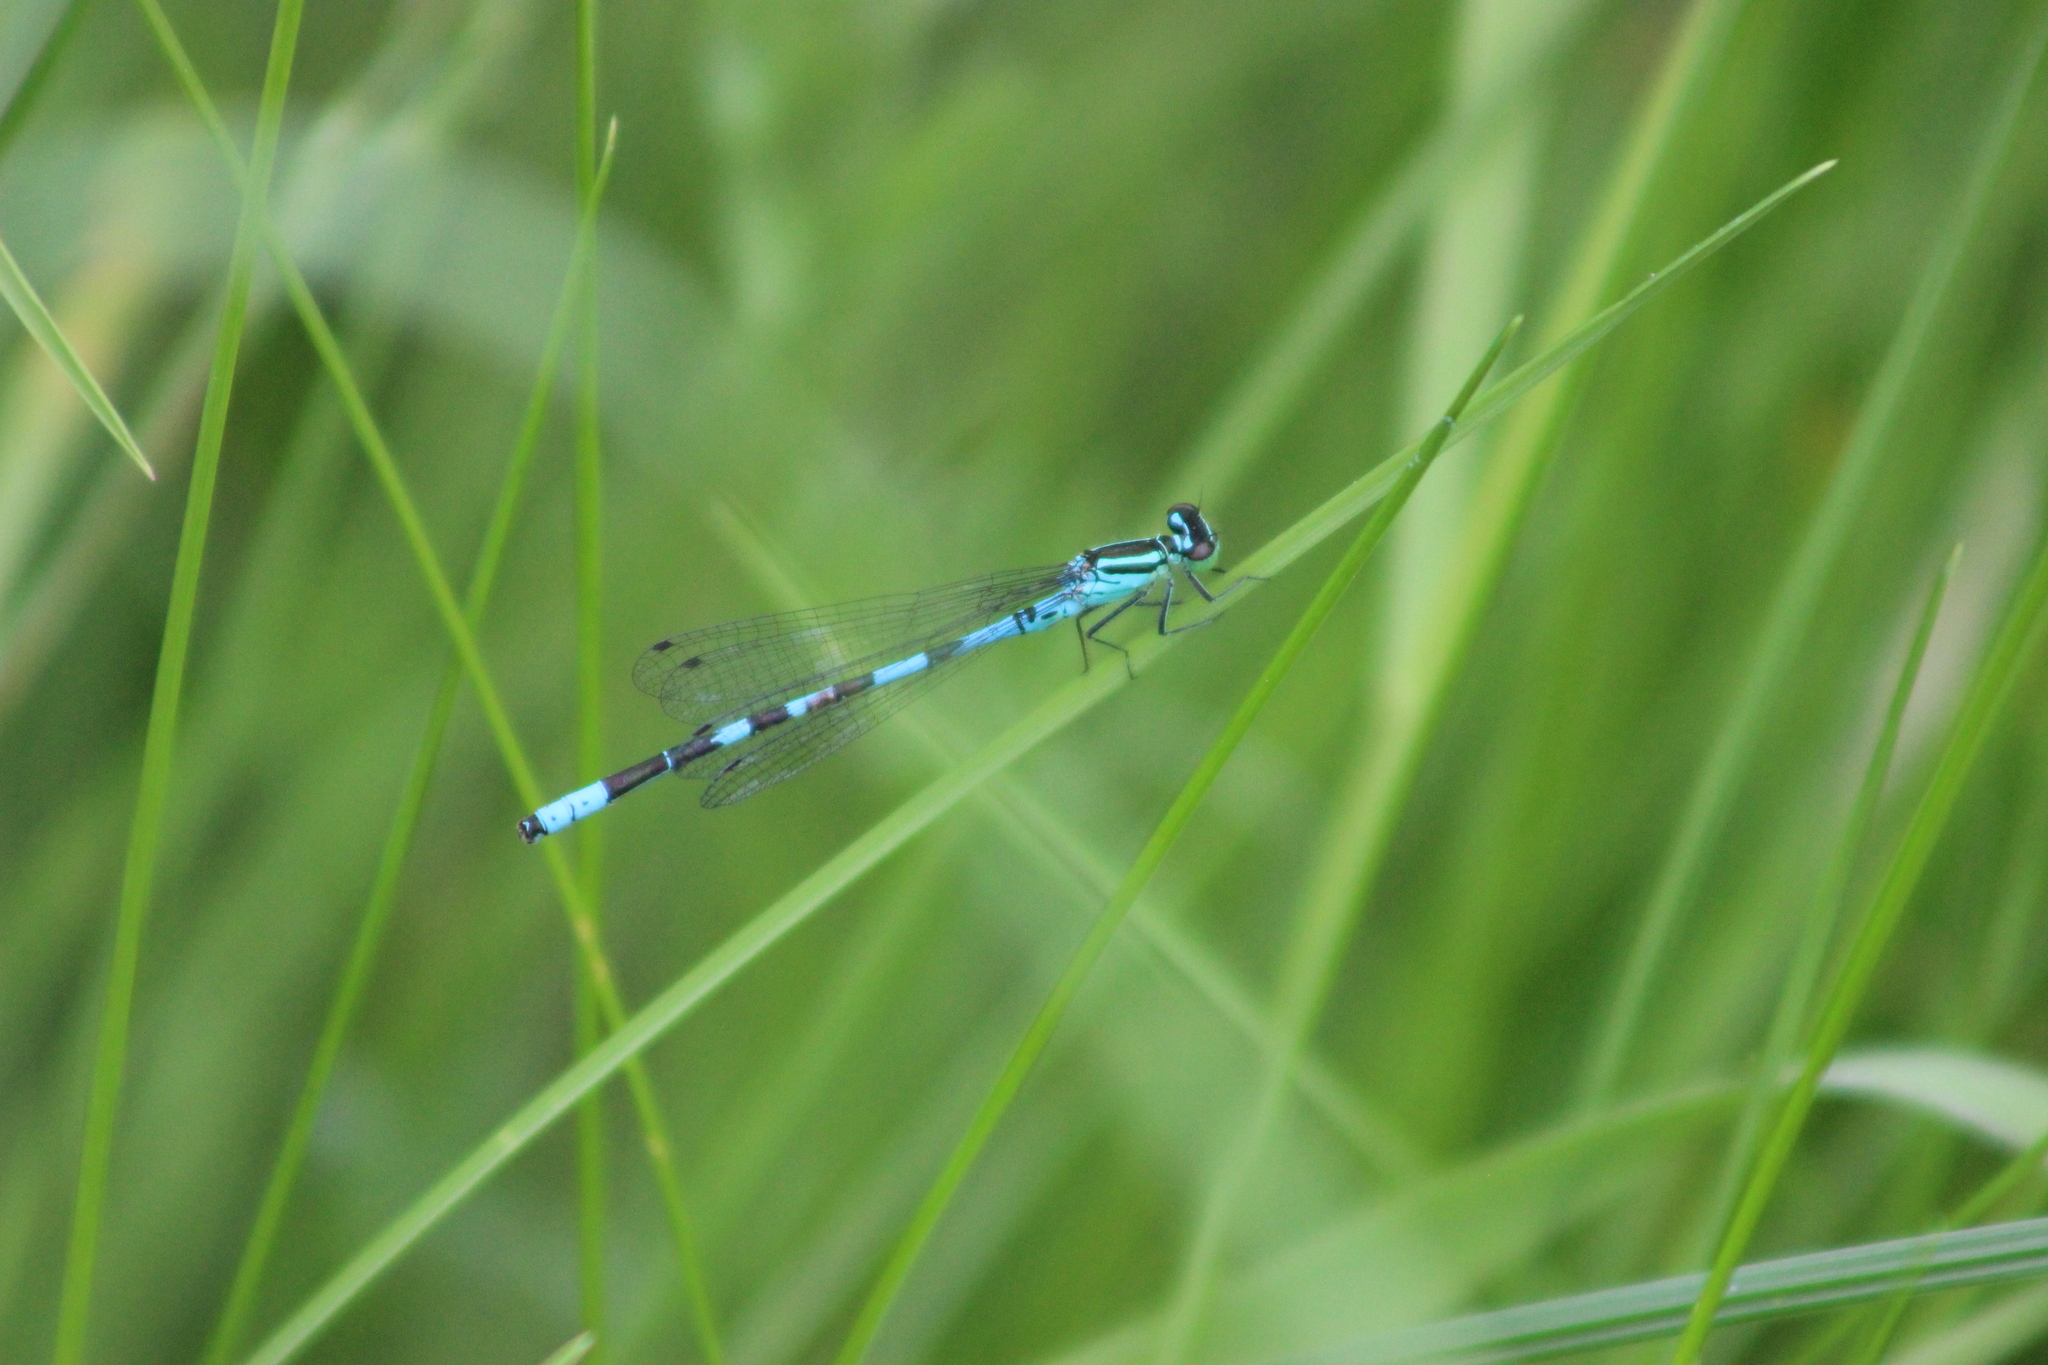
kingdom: Animalia
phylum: Arthropoda
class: Insecta
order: Odonata
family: Coenagrionidae
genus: Coenagrion
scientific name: Coenagrion hastulatum
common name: Spearhead bluet
